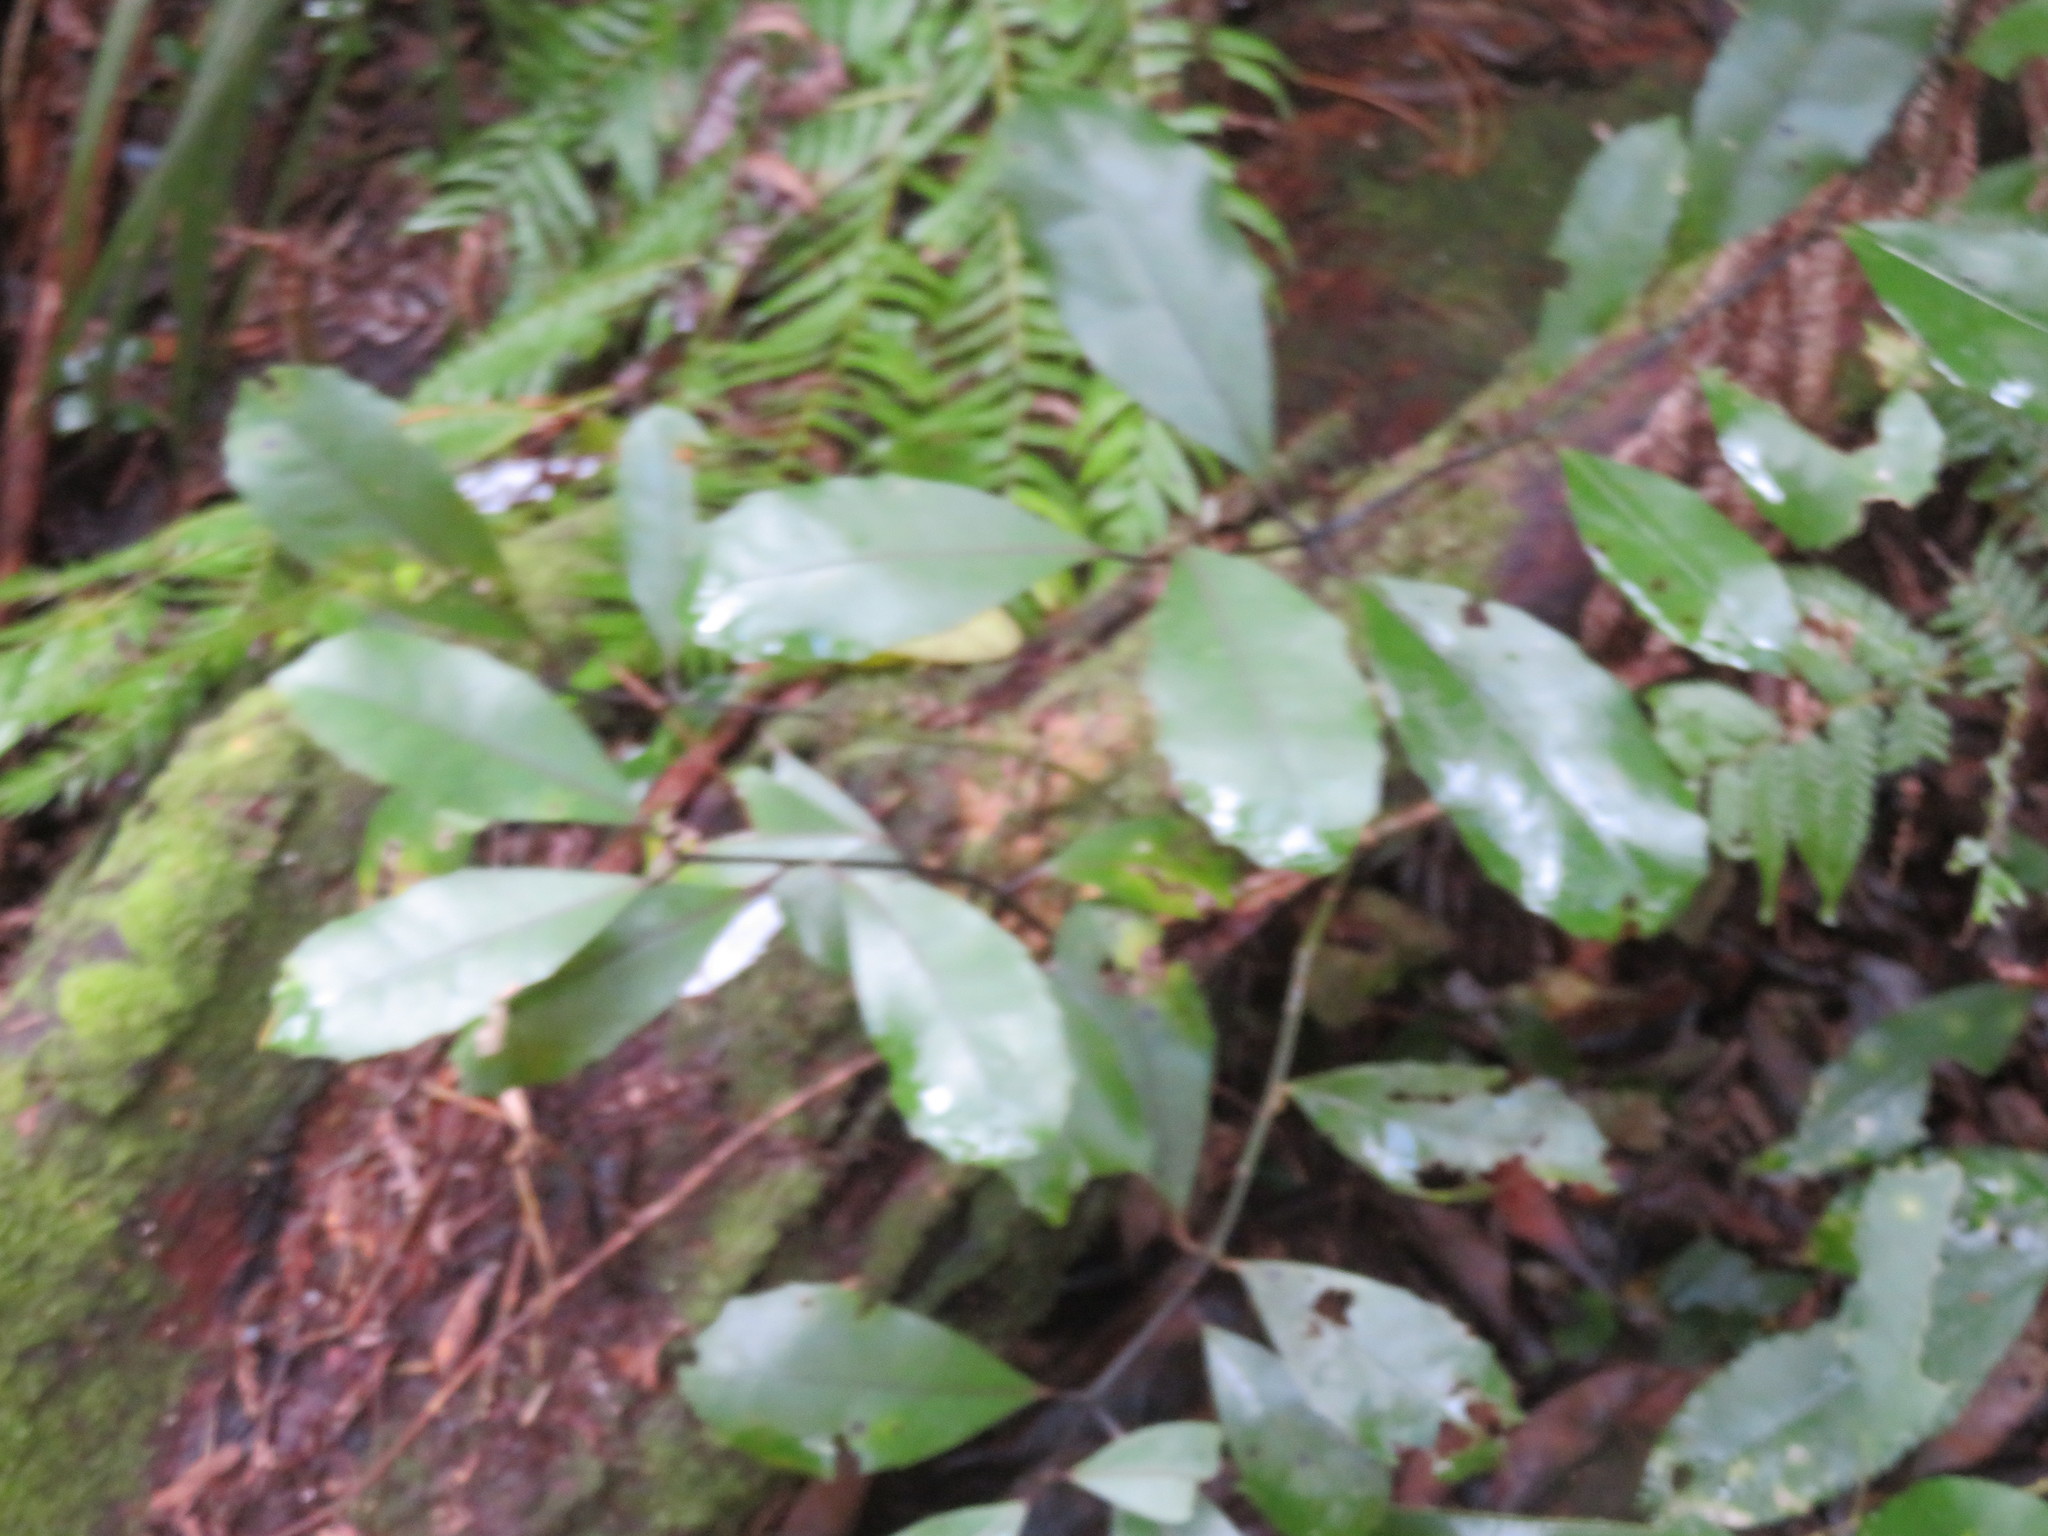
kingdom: Plantae
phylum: Tracheophyta
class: Magnoliopsida
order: Laurales
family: Monimiaceae
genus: Hedycarya
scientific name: Hedycarya arborea
